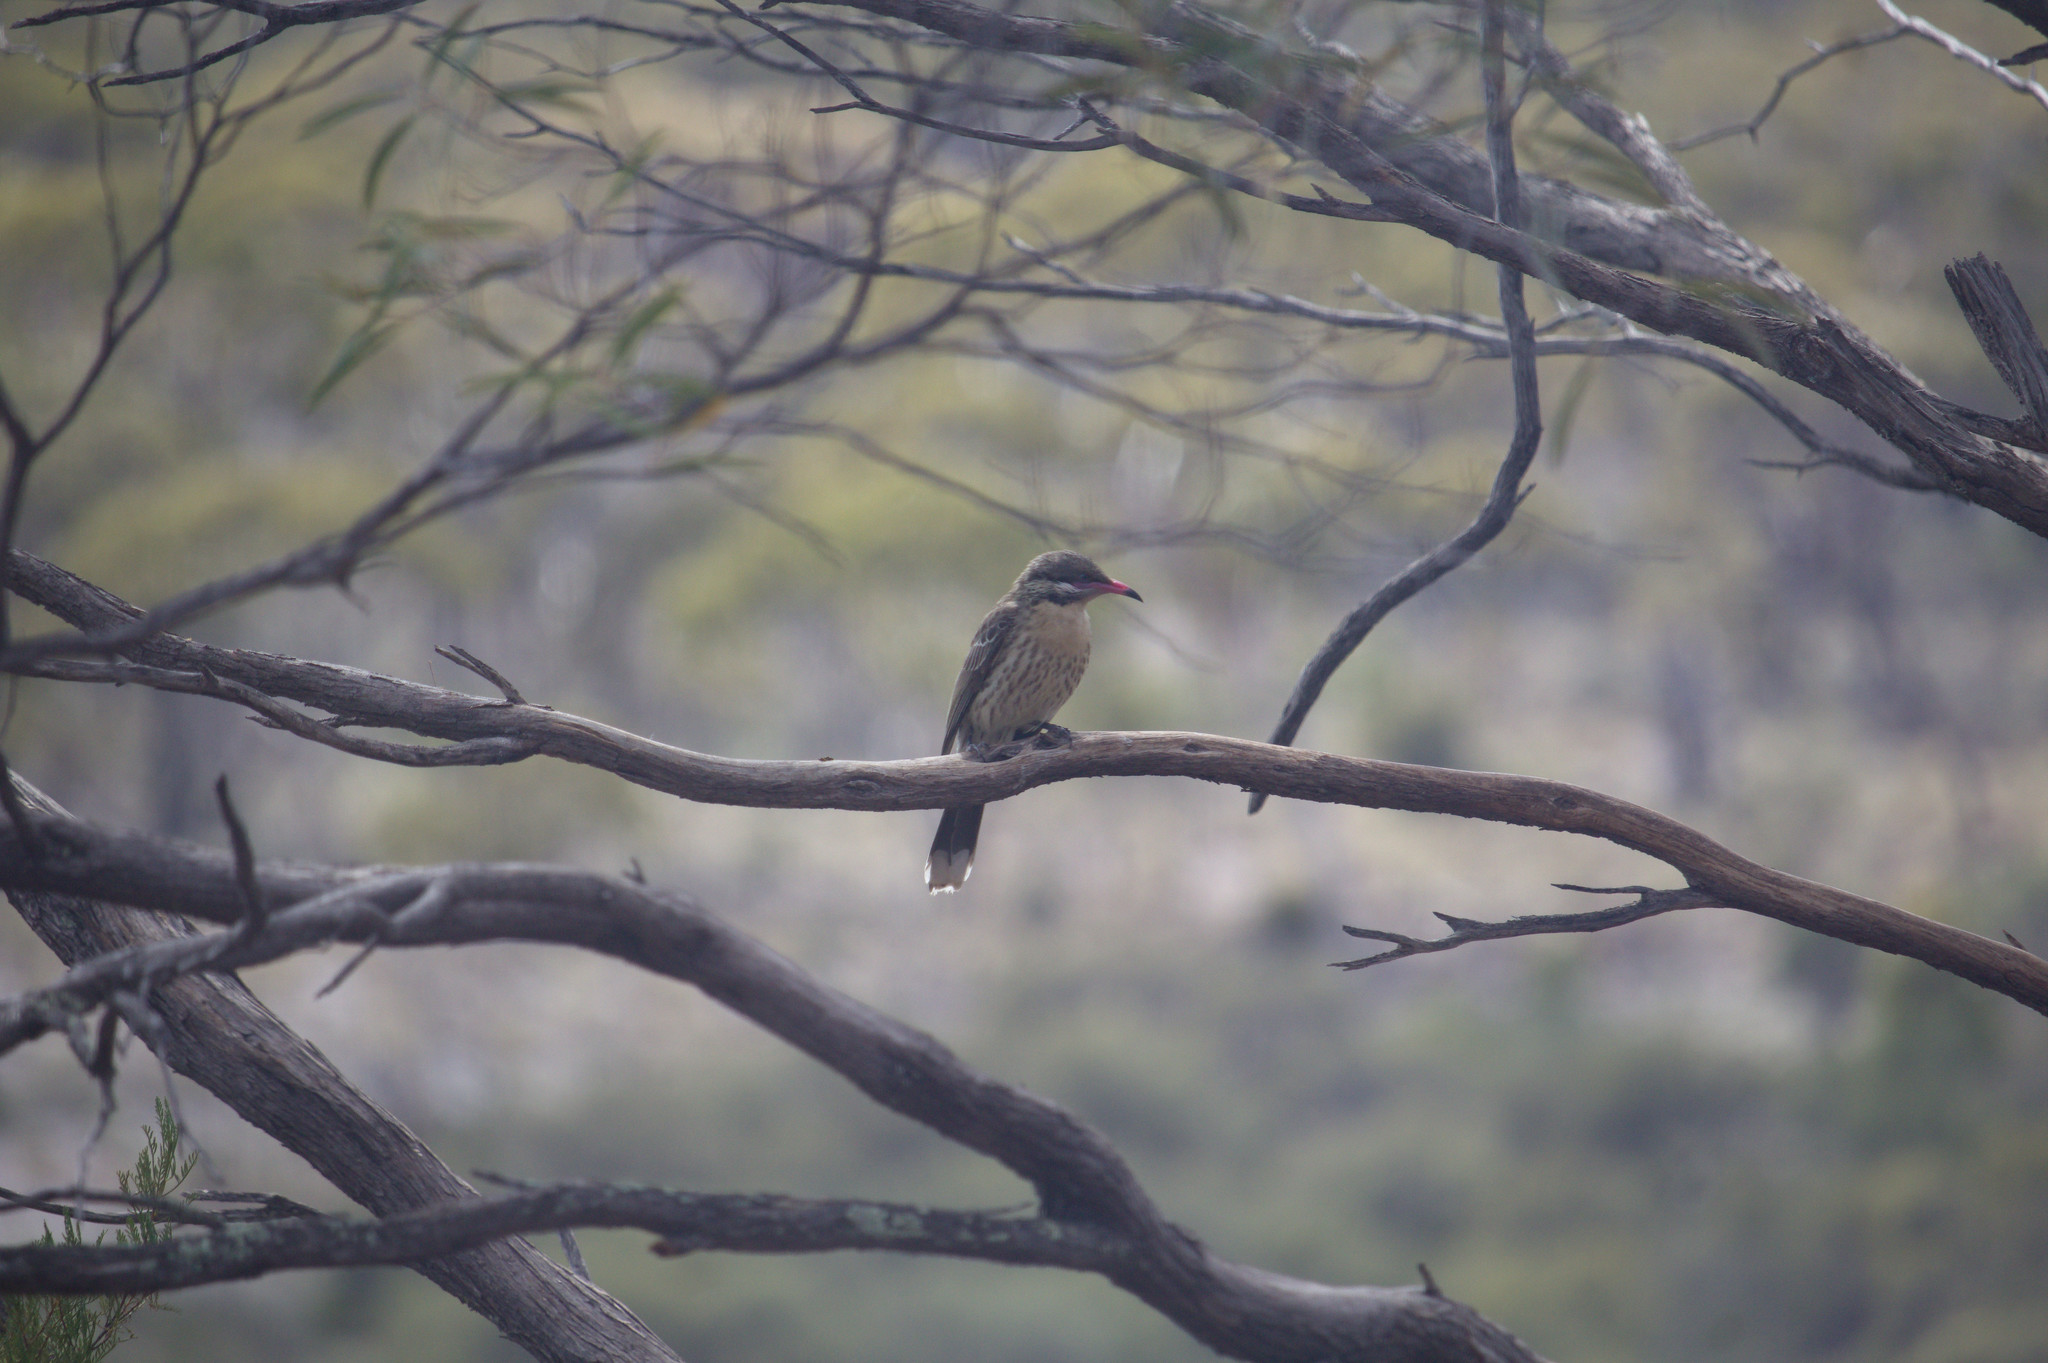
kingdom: Animalia
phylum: Chordata
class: Aves
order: Passeriformes
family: Meliphagidae
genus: Acanthagenys
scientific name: Acanthagenys rufogularis
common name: Spiny-cheeked honeyeater
